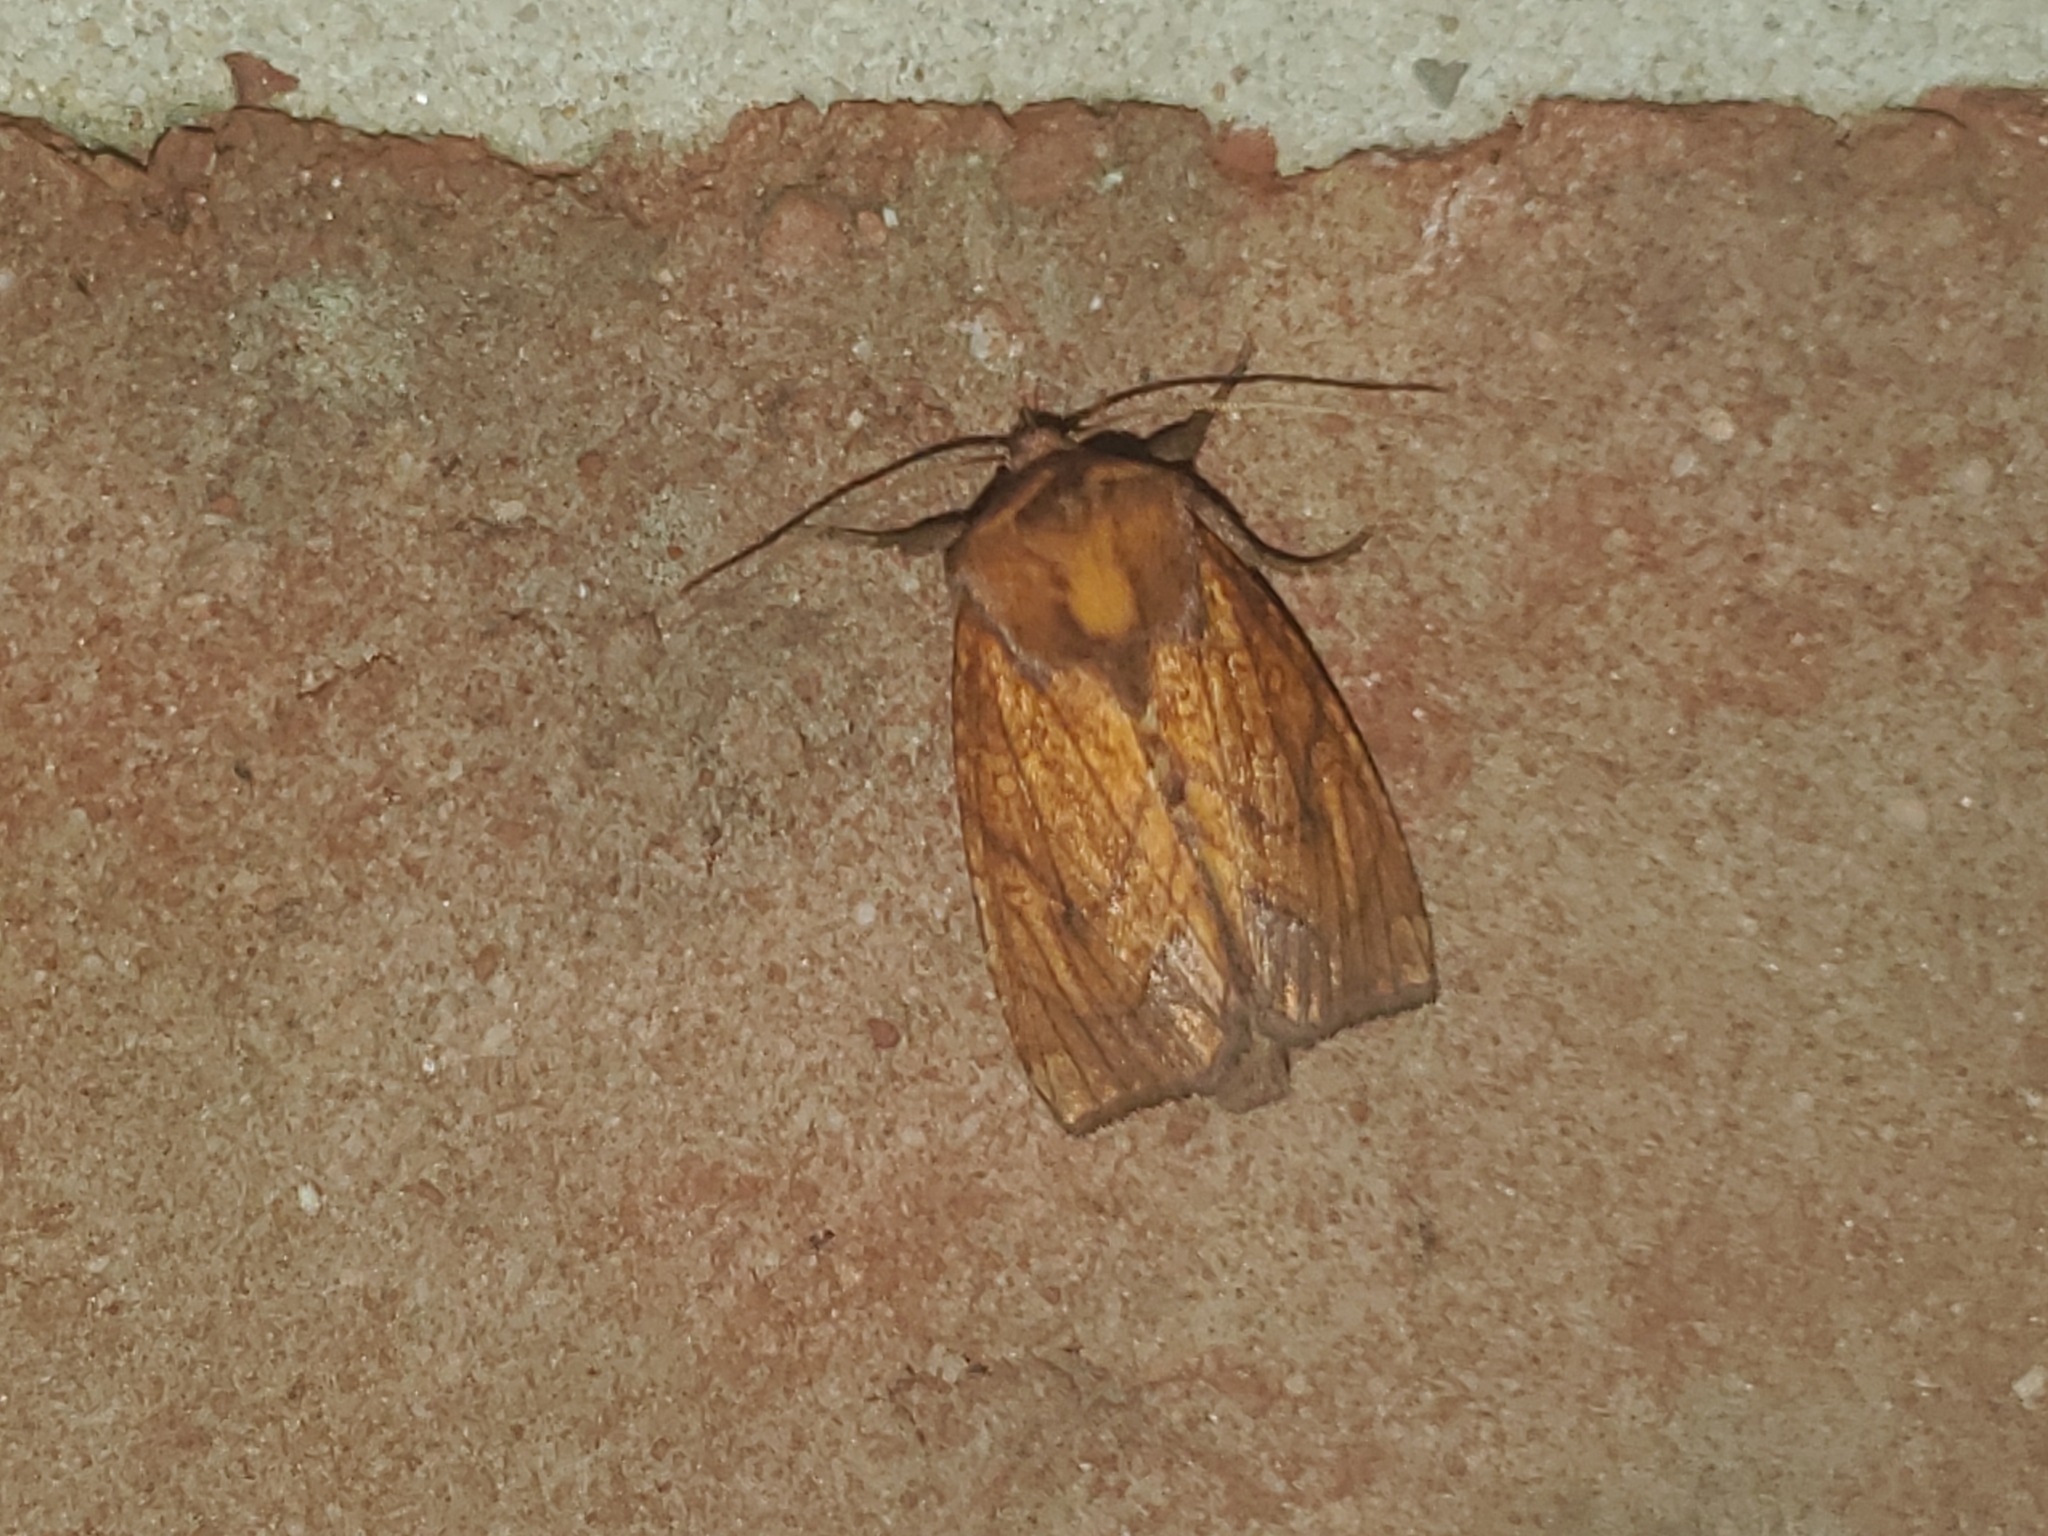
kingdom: Animalia
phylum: Arthropoda
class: Insecta
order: Lepidoptera
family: Noctuidae
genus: Papaipema
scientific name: Papaipema inquaesita
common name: Sensitive fern borer moth
